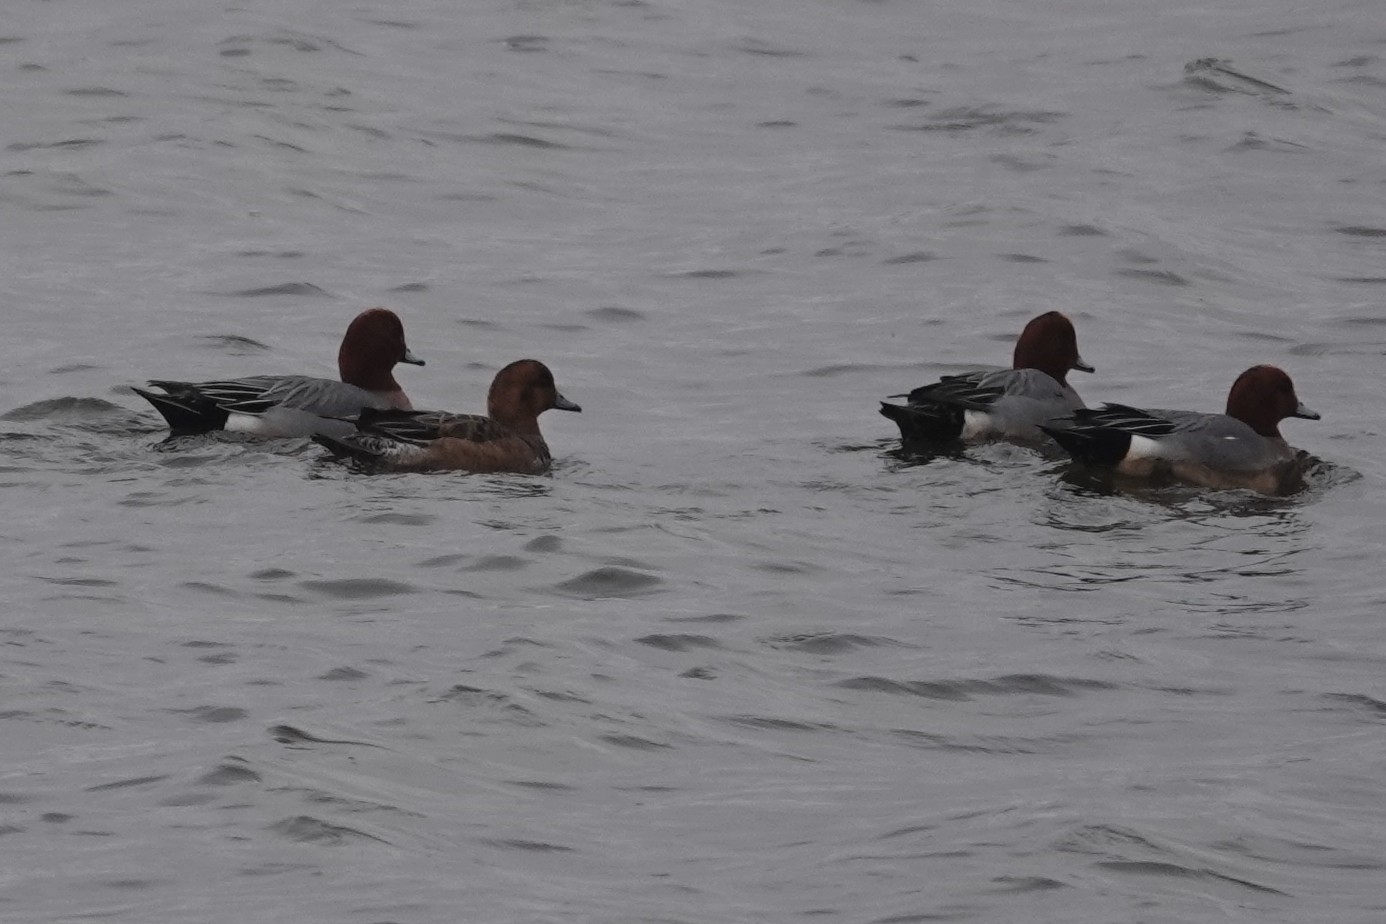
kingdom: Animalia
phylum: Chordata
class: Aves
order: Anseriformes
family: Anatidae
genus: Mareca
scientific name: Mareca penelope
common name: Eurasian wigeon
